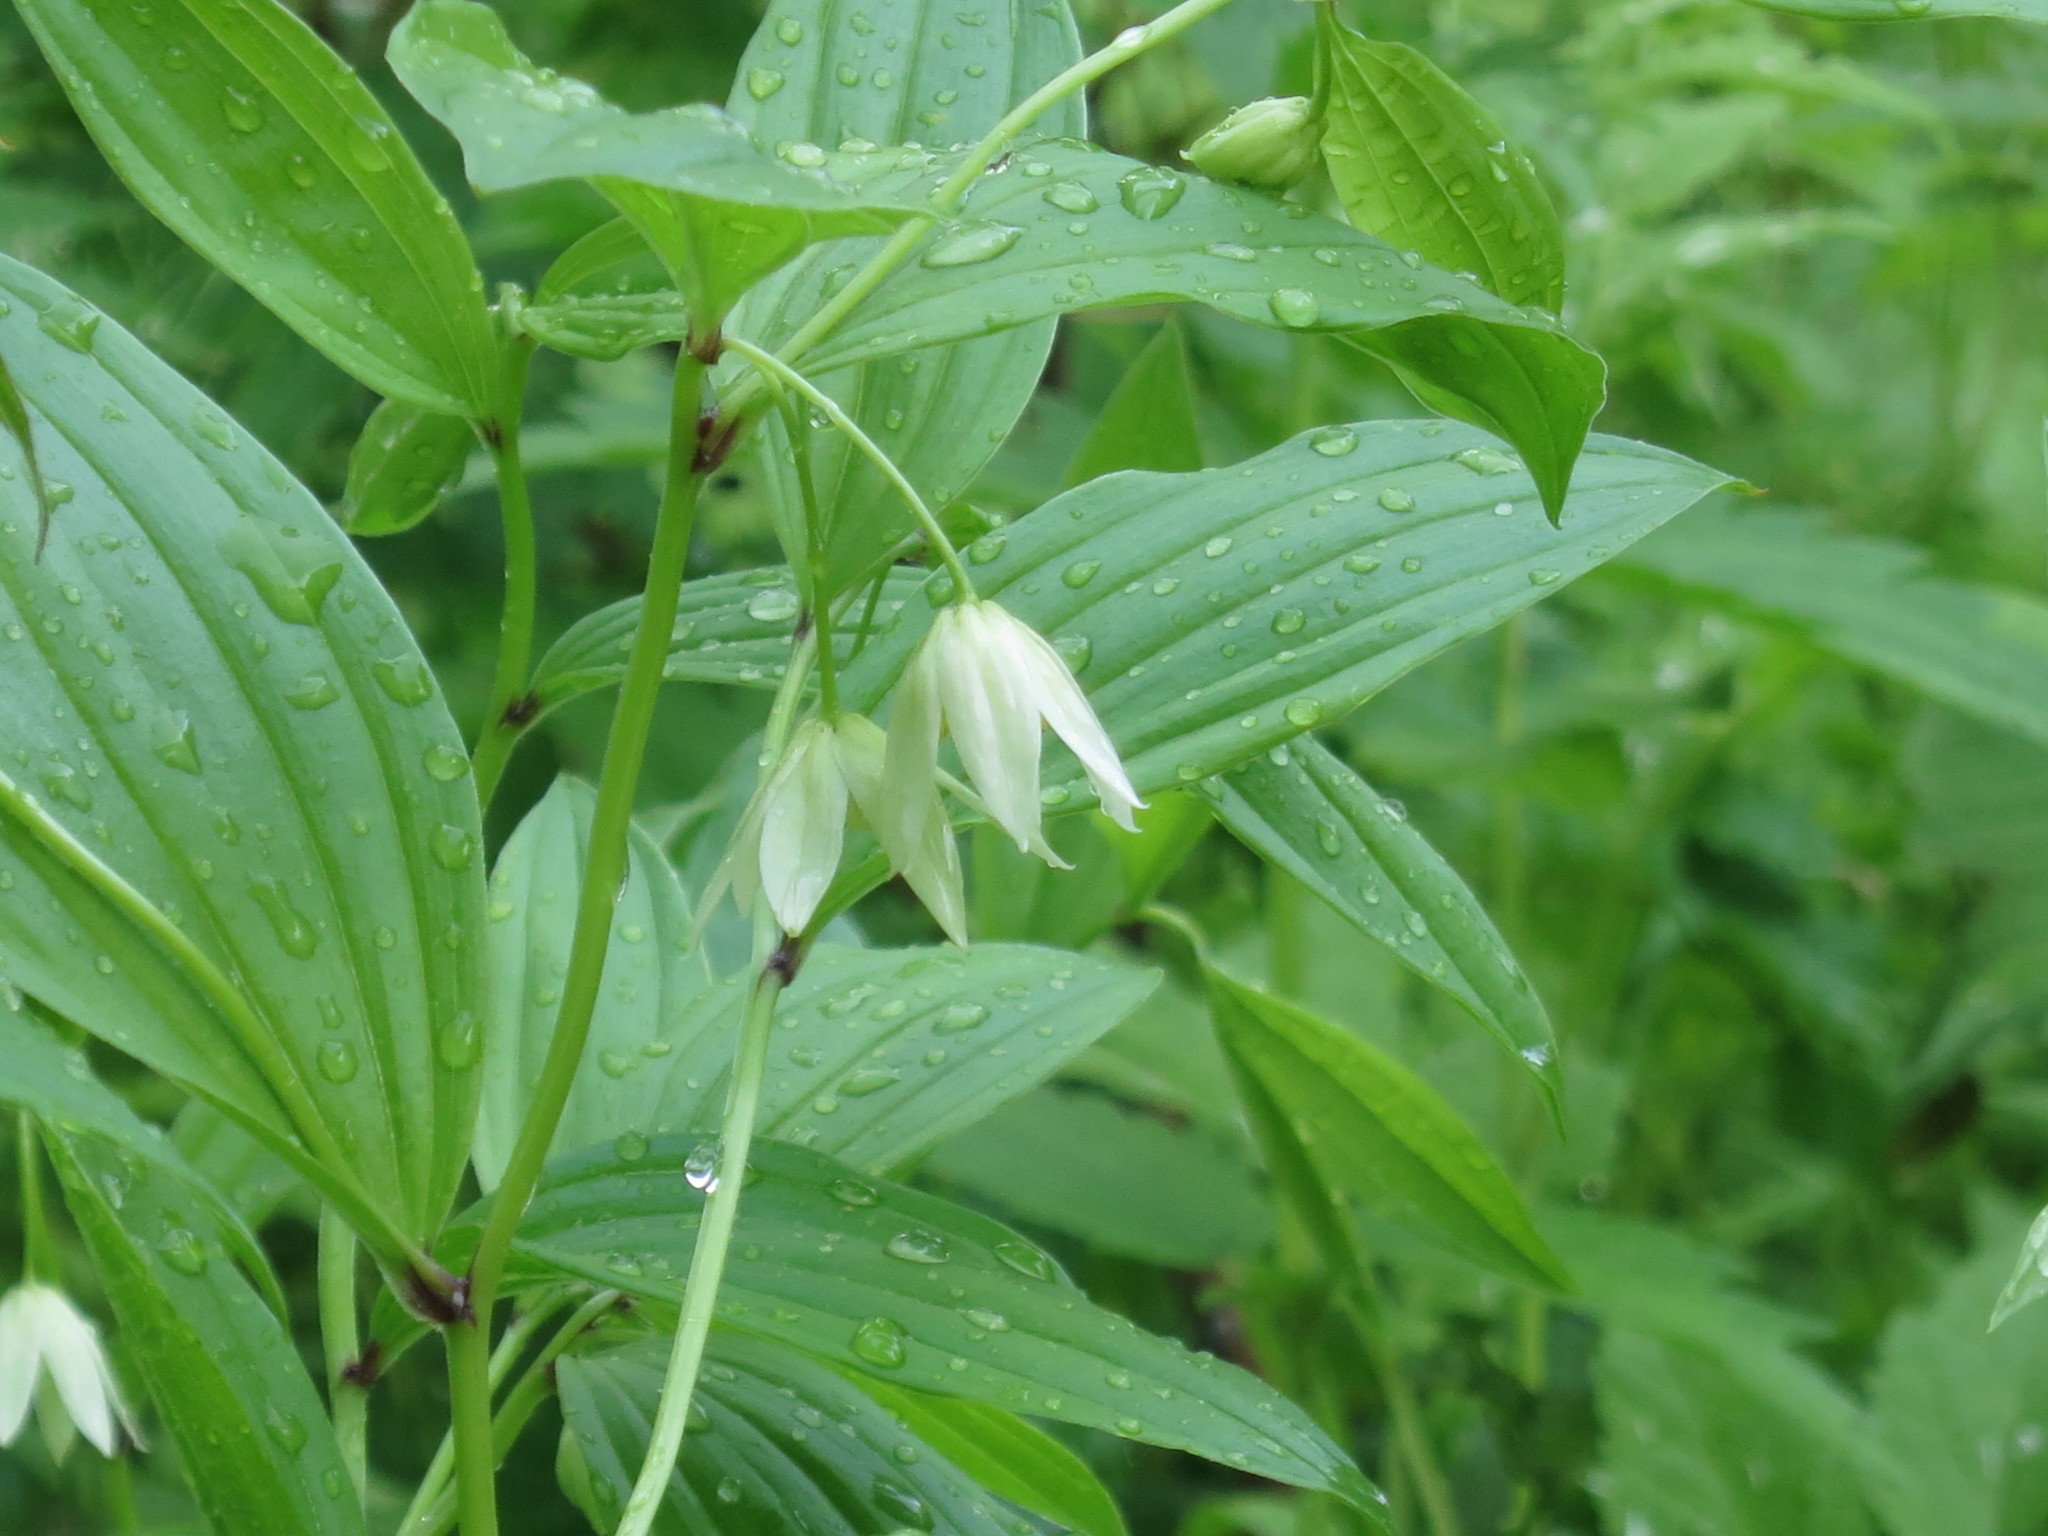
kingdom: Plantae
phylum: Tracheophyta
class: Liliopsida
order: Liliales
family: Colchicaceae
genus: Disporum
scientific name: Disporum viridescens
